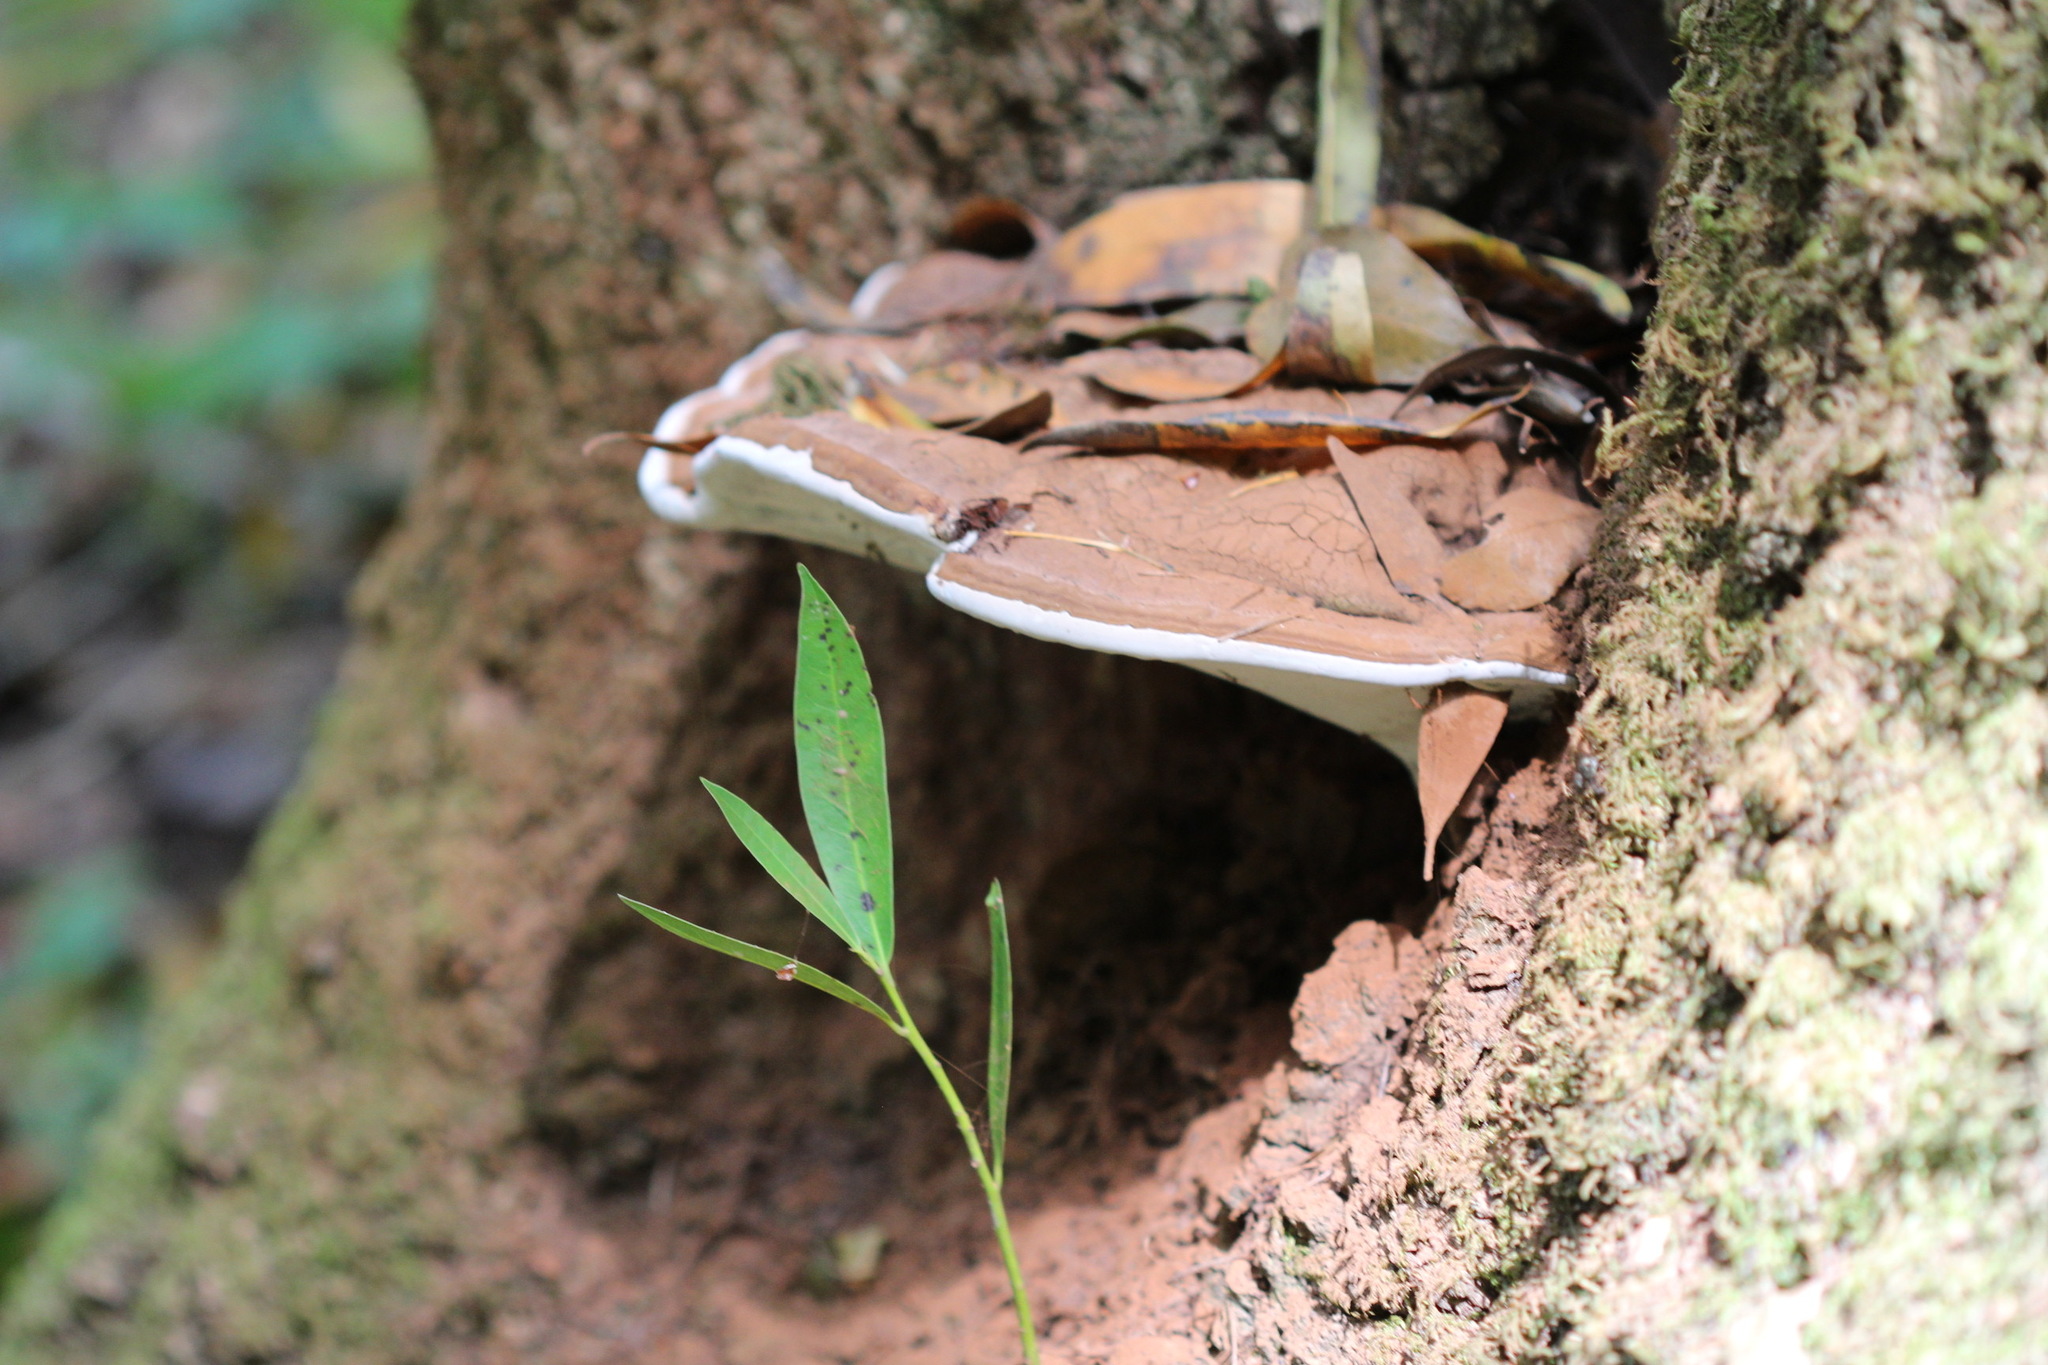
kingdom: Fungi
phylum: Basidiomycota
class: Agaricomycetes
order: Polyporales
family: Polyporaceae
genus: Ganoderma
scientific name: Ganoderma brownii
